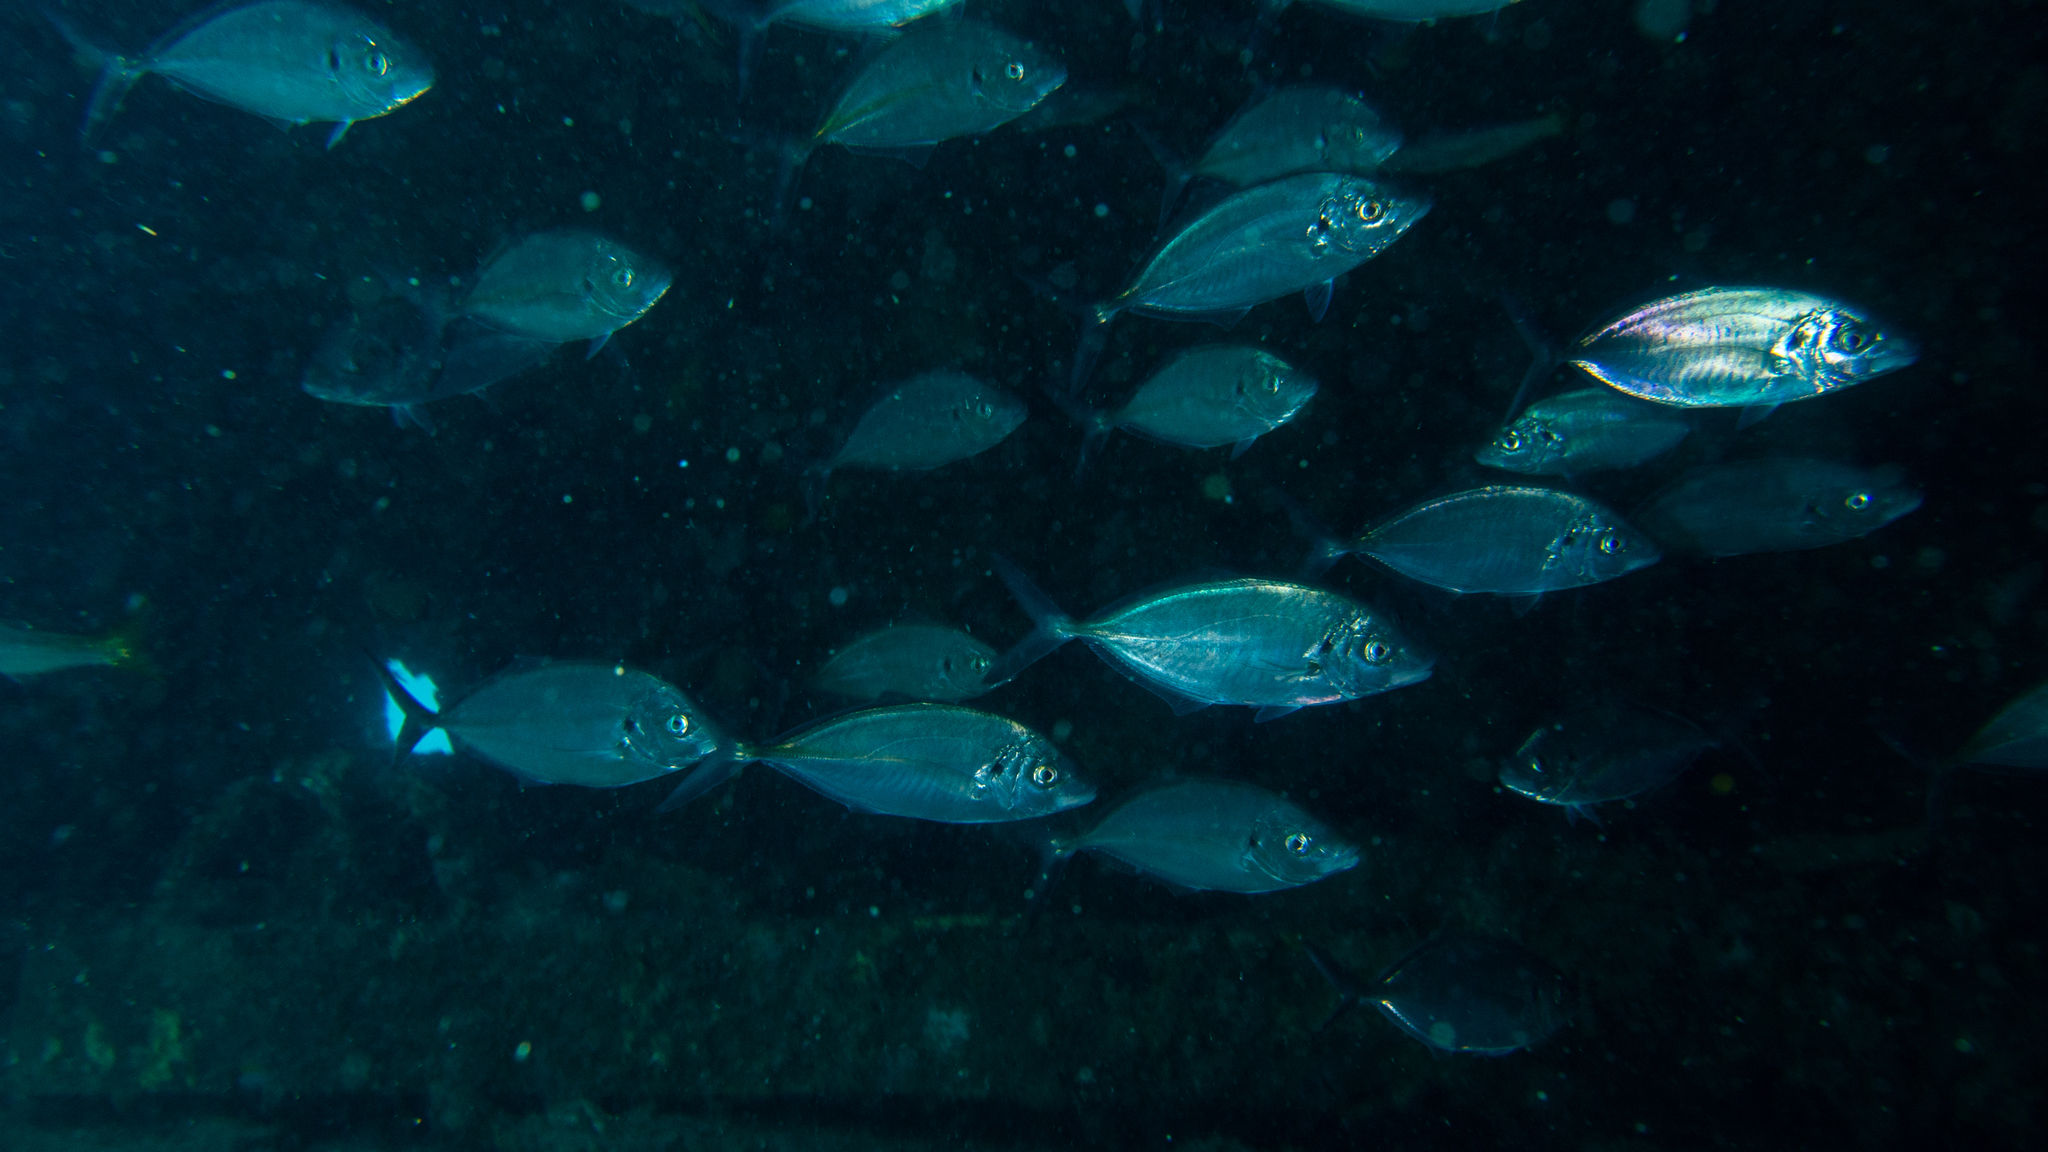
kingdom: Animalia
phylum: Chordata
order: Perciformes
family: Carangidae
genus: Pseudocaranx
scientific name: Pseudocaranx dentex
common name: White trevally
